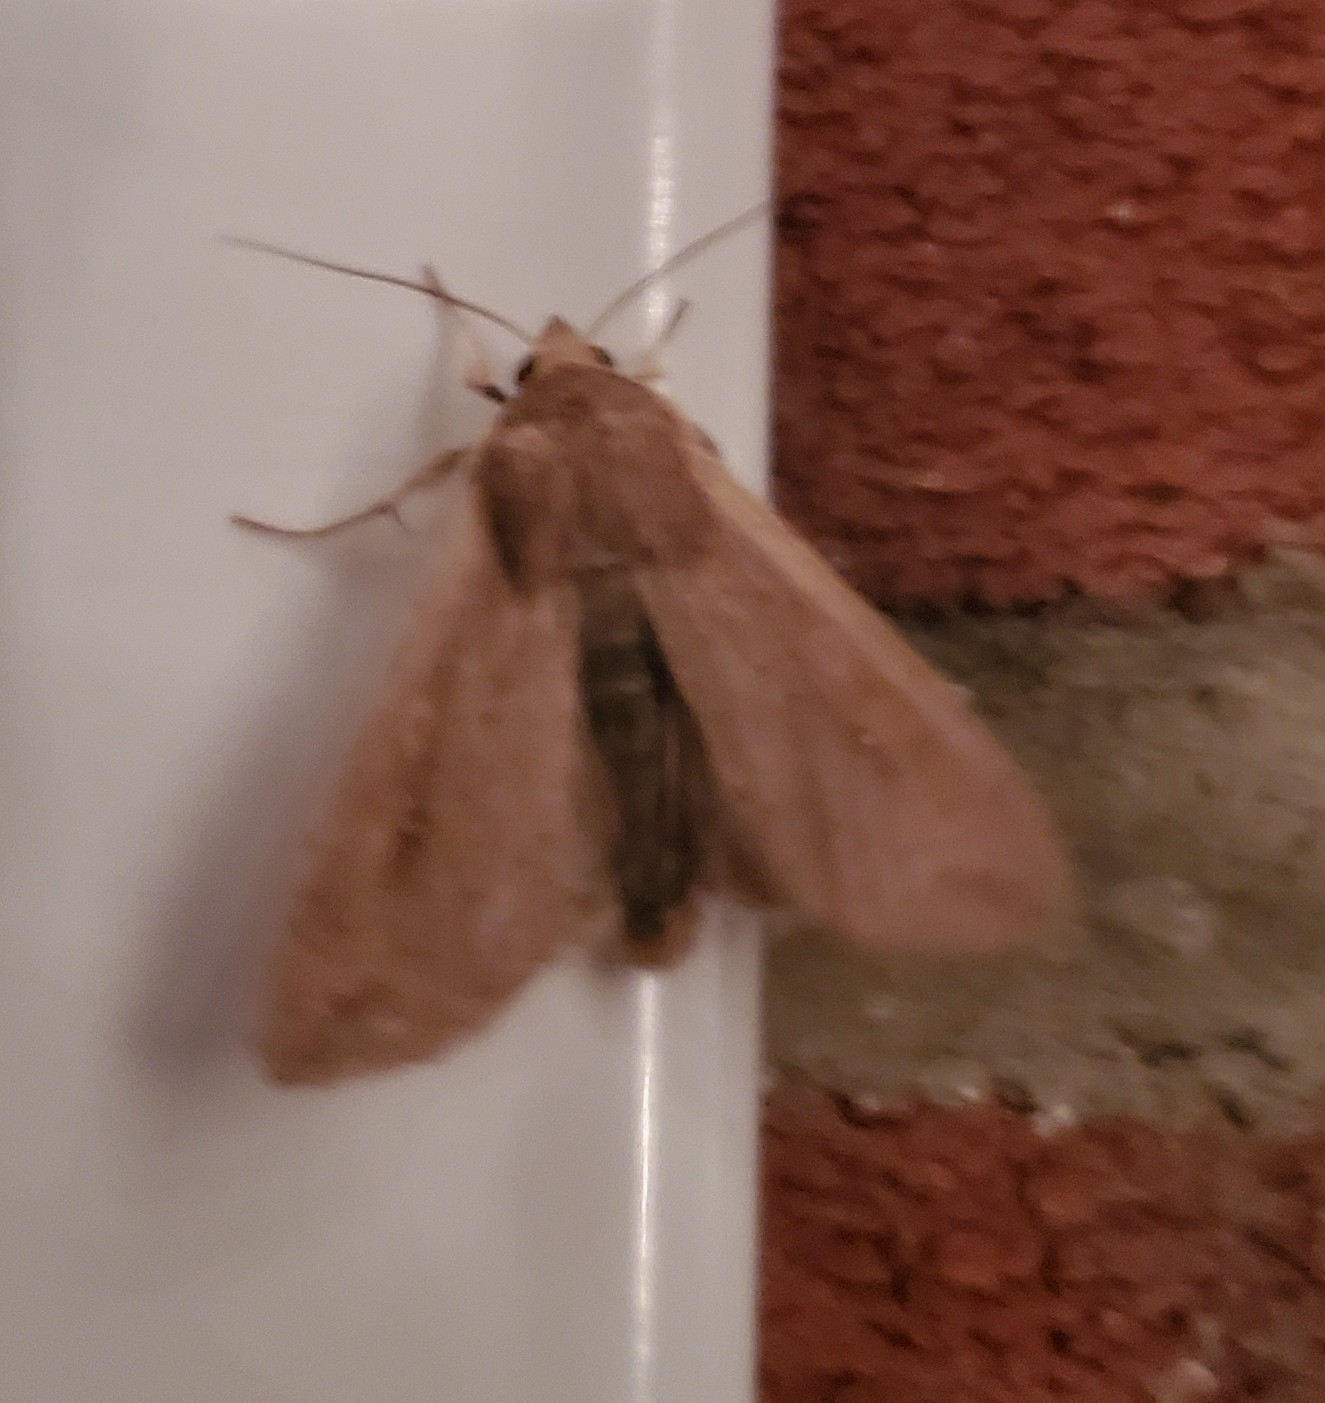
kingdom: Animalia
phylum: Arthropoda
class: Insecta
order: Lepidoptera
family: Noctuidae
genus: Mythimna
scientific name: Mythimna unipuncta
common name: White-speck
